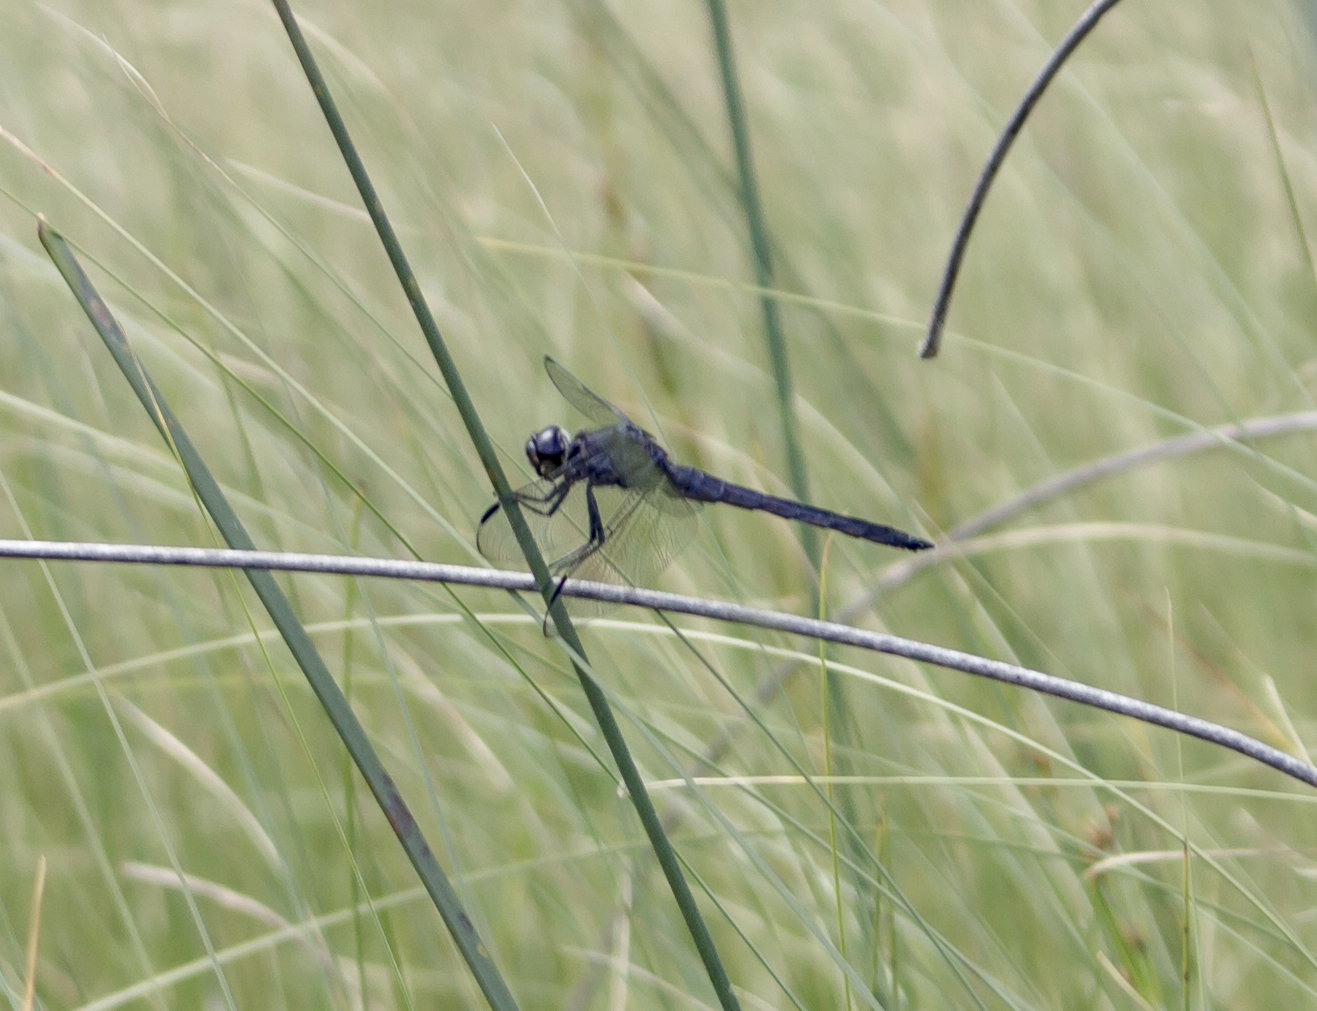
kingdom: Animalia
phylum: Arthropoda
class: Insecta
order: Odonata
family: Libellulidae
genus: Libellula
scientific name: Libellula incesta
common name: Slaty skimmer
